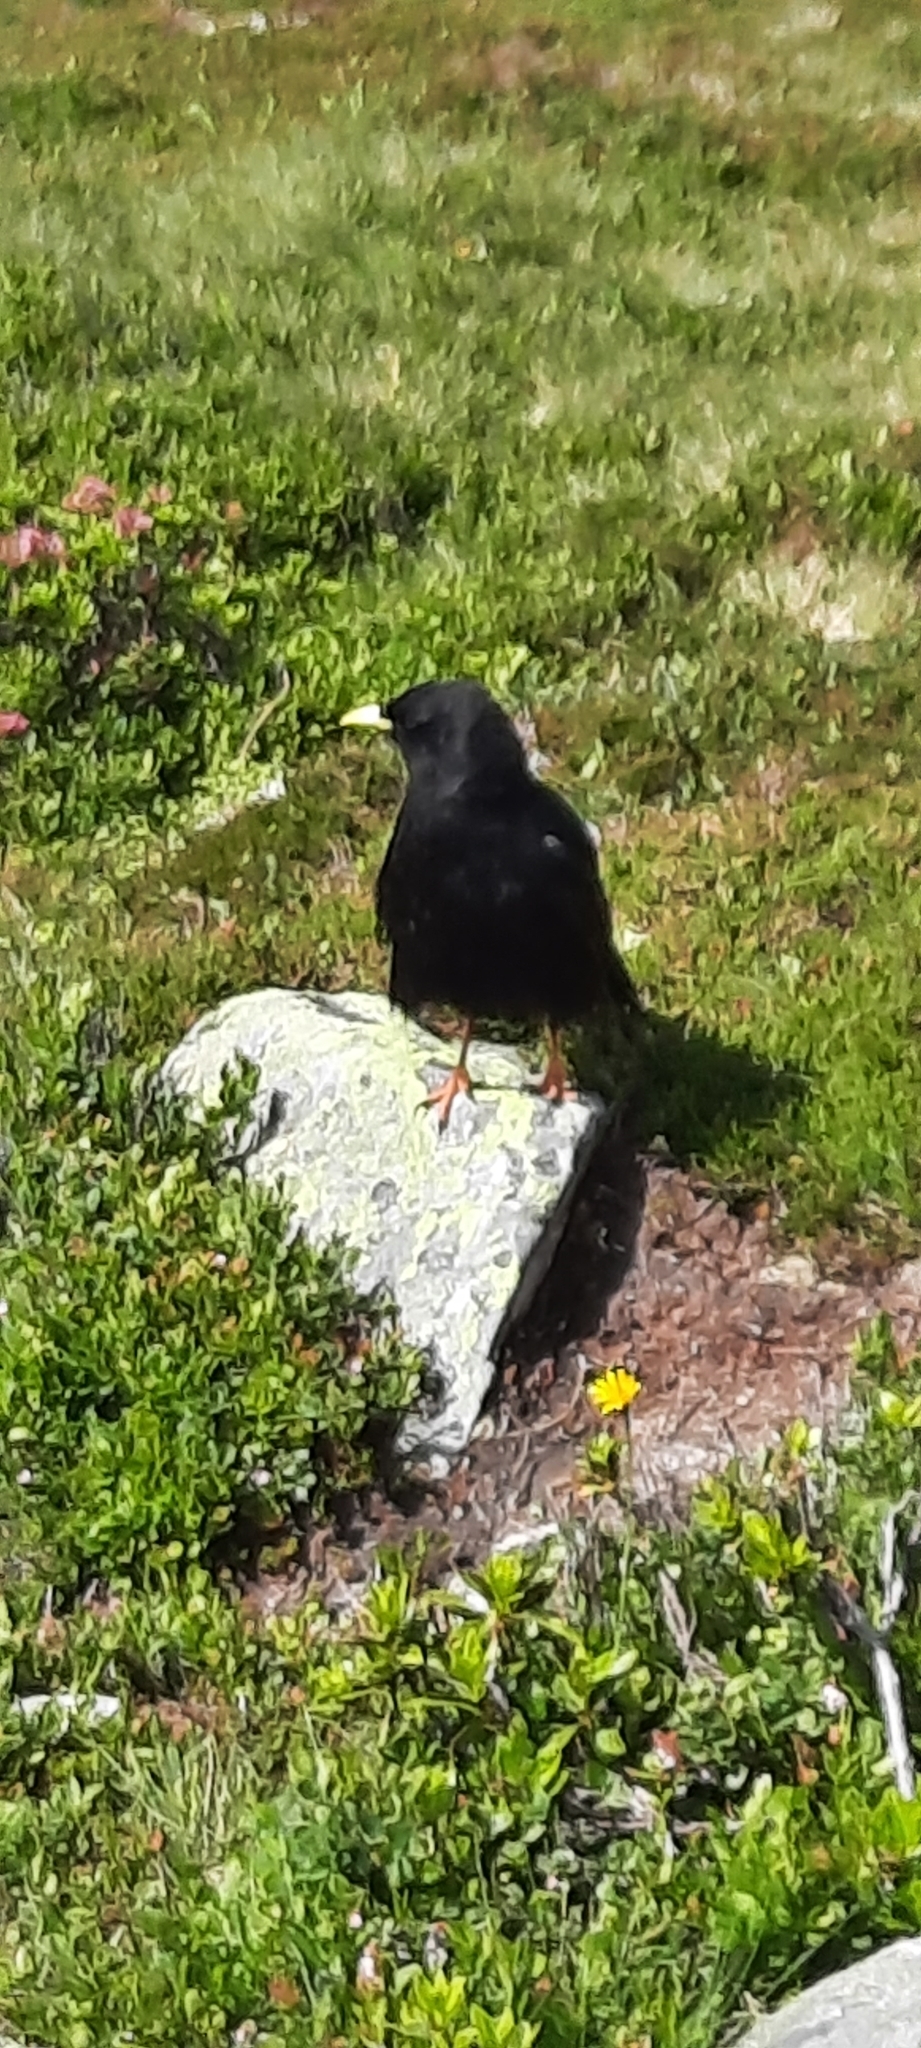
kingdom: Animalia
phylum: Chordata
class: Aves
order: Passeriformes
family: Corvidae
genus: Pyrrhocorax
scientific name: Pyrrhocorax graculus
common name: Alpine chough
